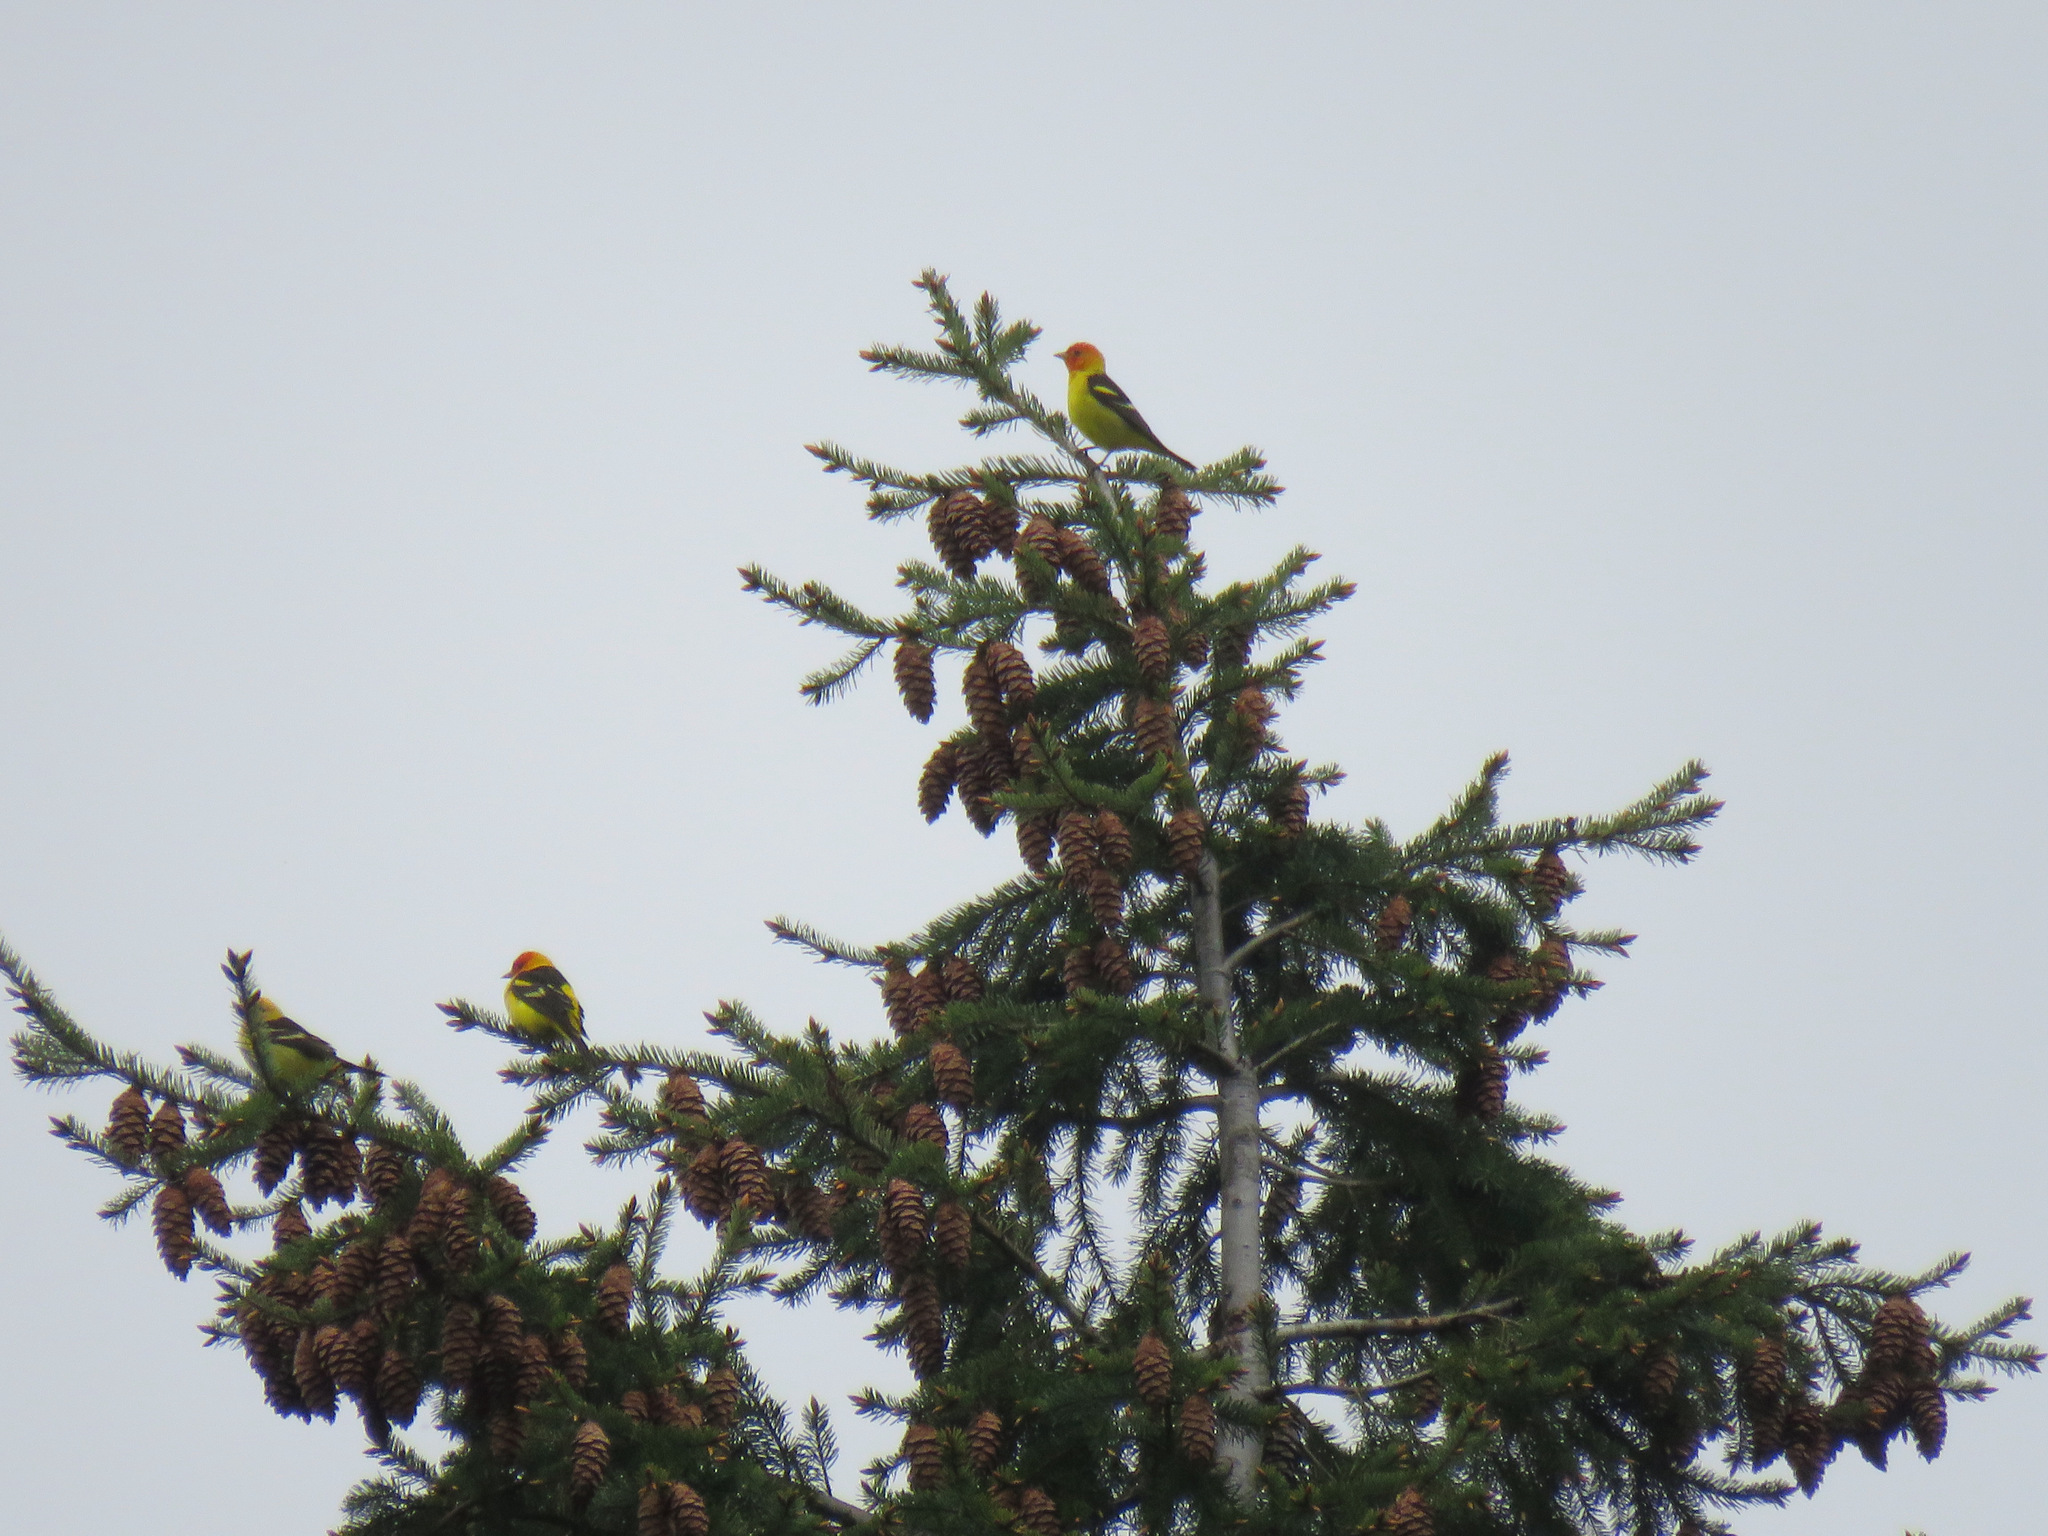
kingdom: Animalia
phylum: Chordata
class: Aves
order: Passeriformes
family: Cardinalidae
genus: Piranga
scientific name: Piranga ludoviciana
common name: Western tanager
